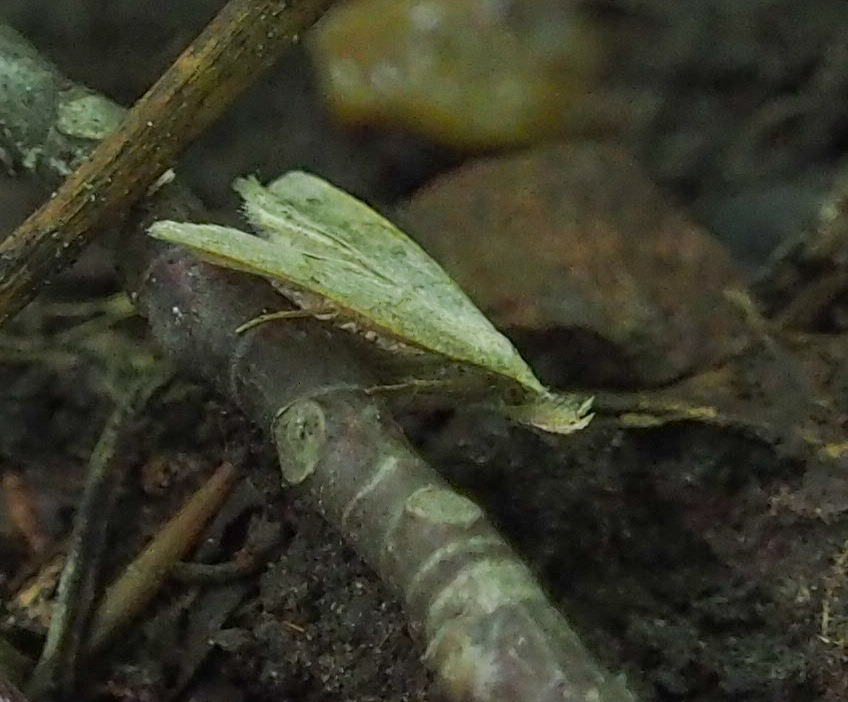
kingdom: Animalia
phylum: Arthropoda
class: Insecta
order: Lepidoptera
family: Erebidae
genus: Macrochilo
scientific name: Macrochilo morbidalis
